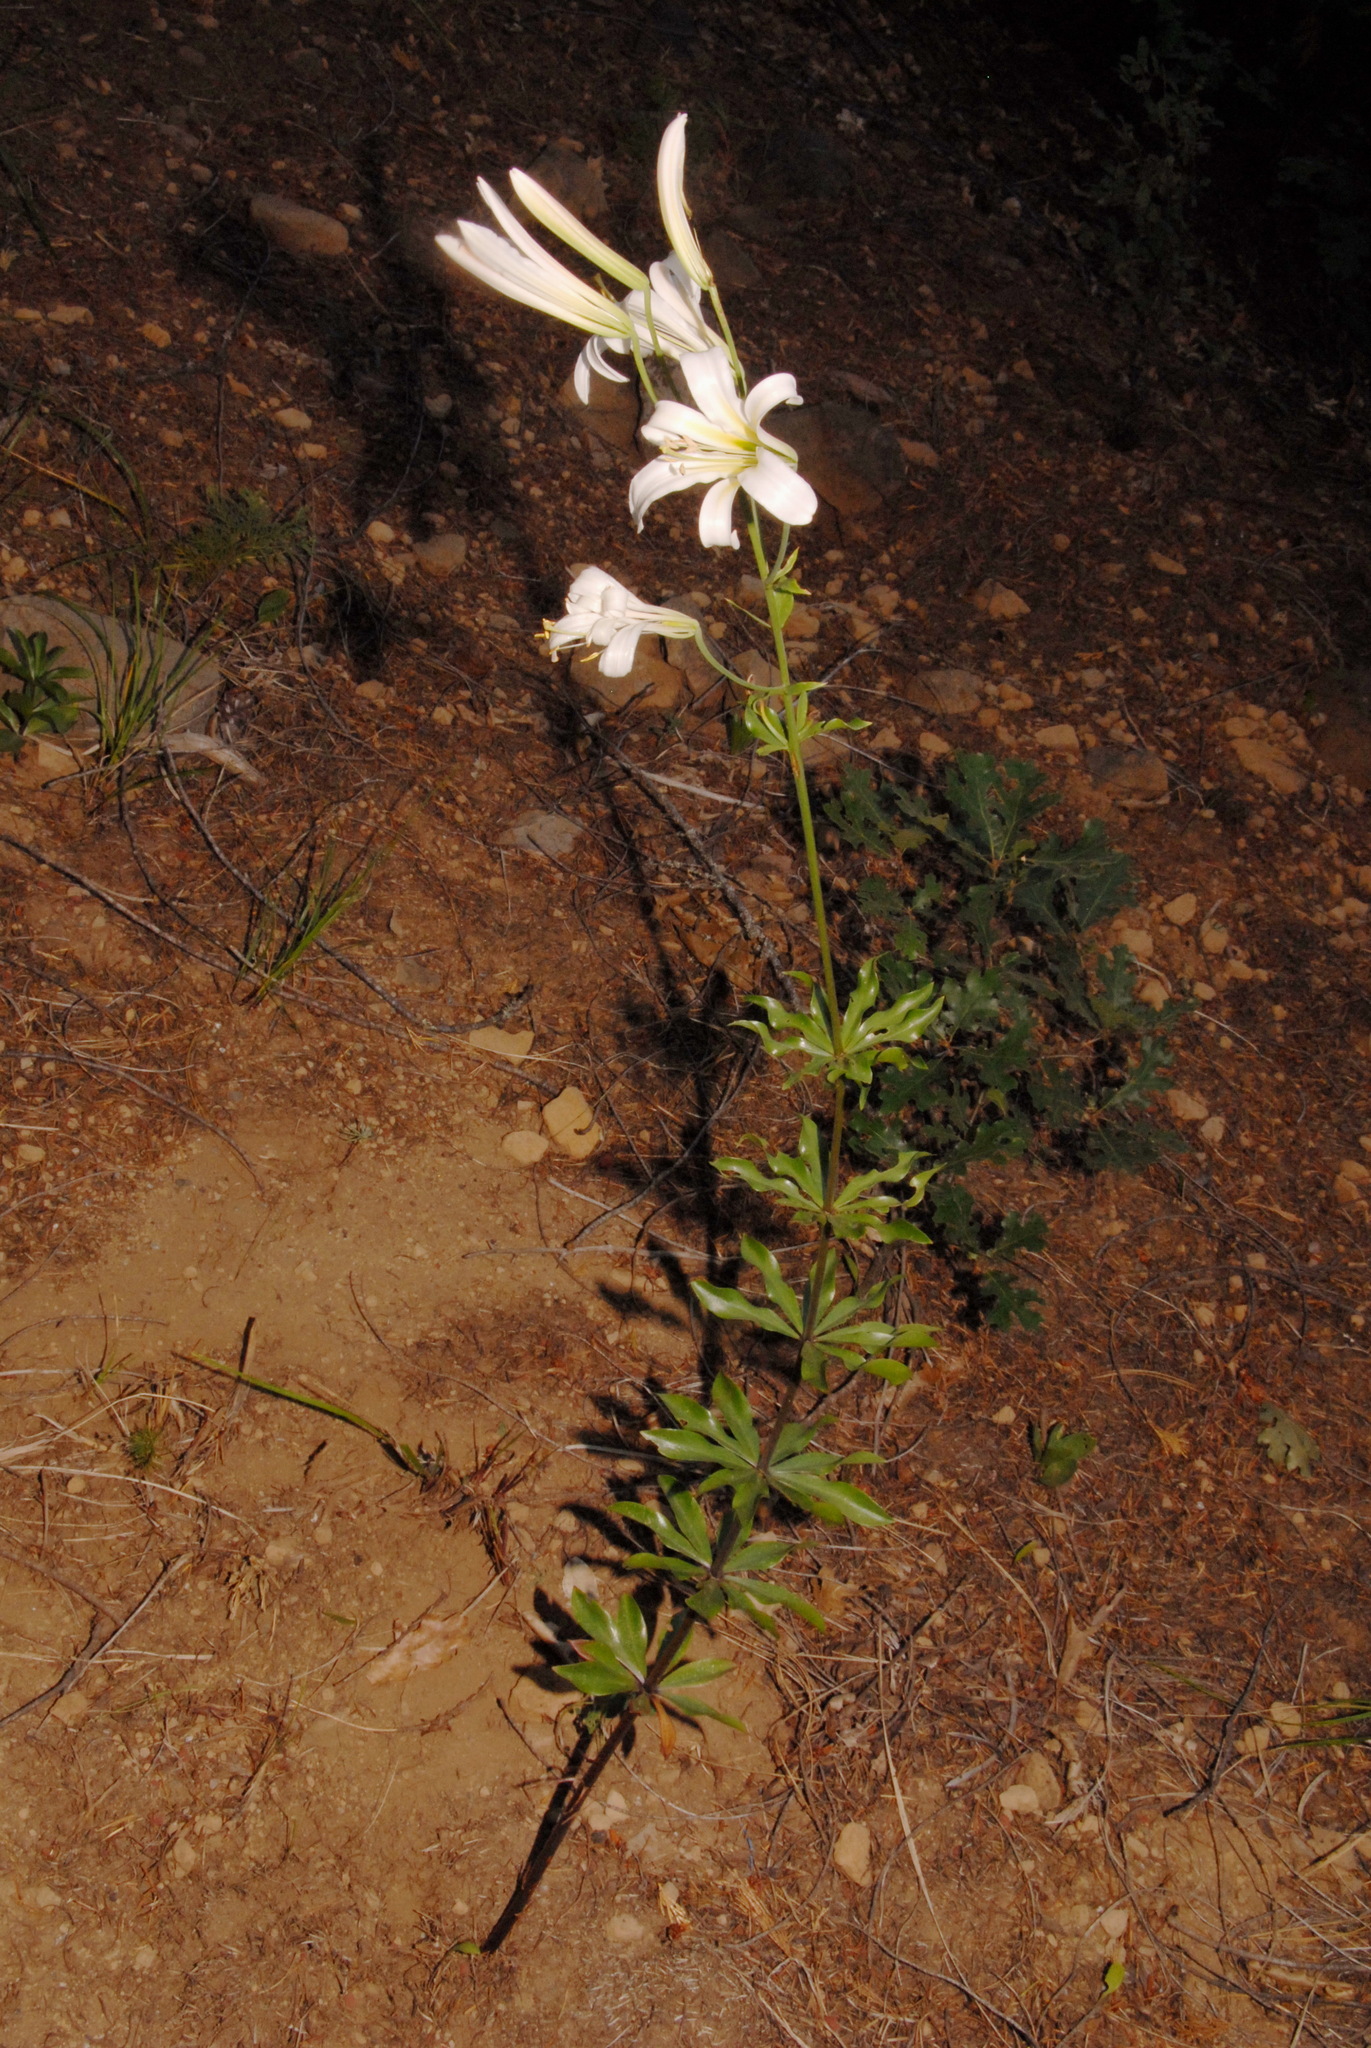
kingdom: Plantae
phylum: Tracheophyta
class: Liliopsida
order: Liliales
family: Liliaceae
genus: Lilium
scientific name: Lilium washingtonianum
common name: Washington lily
